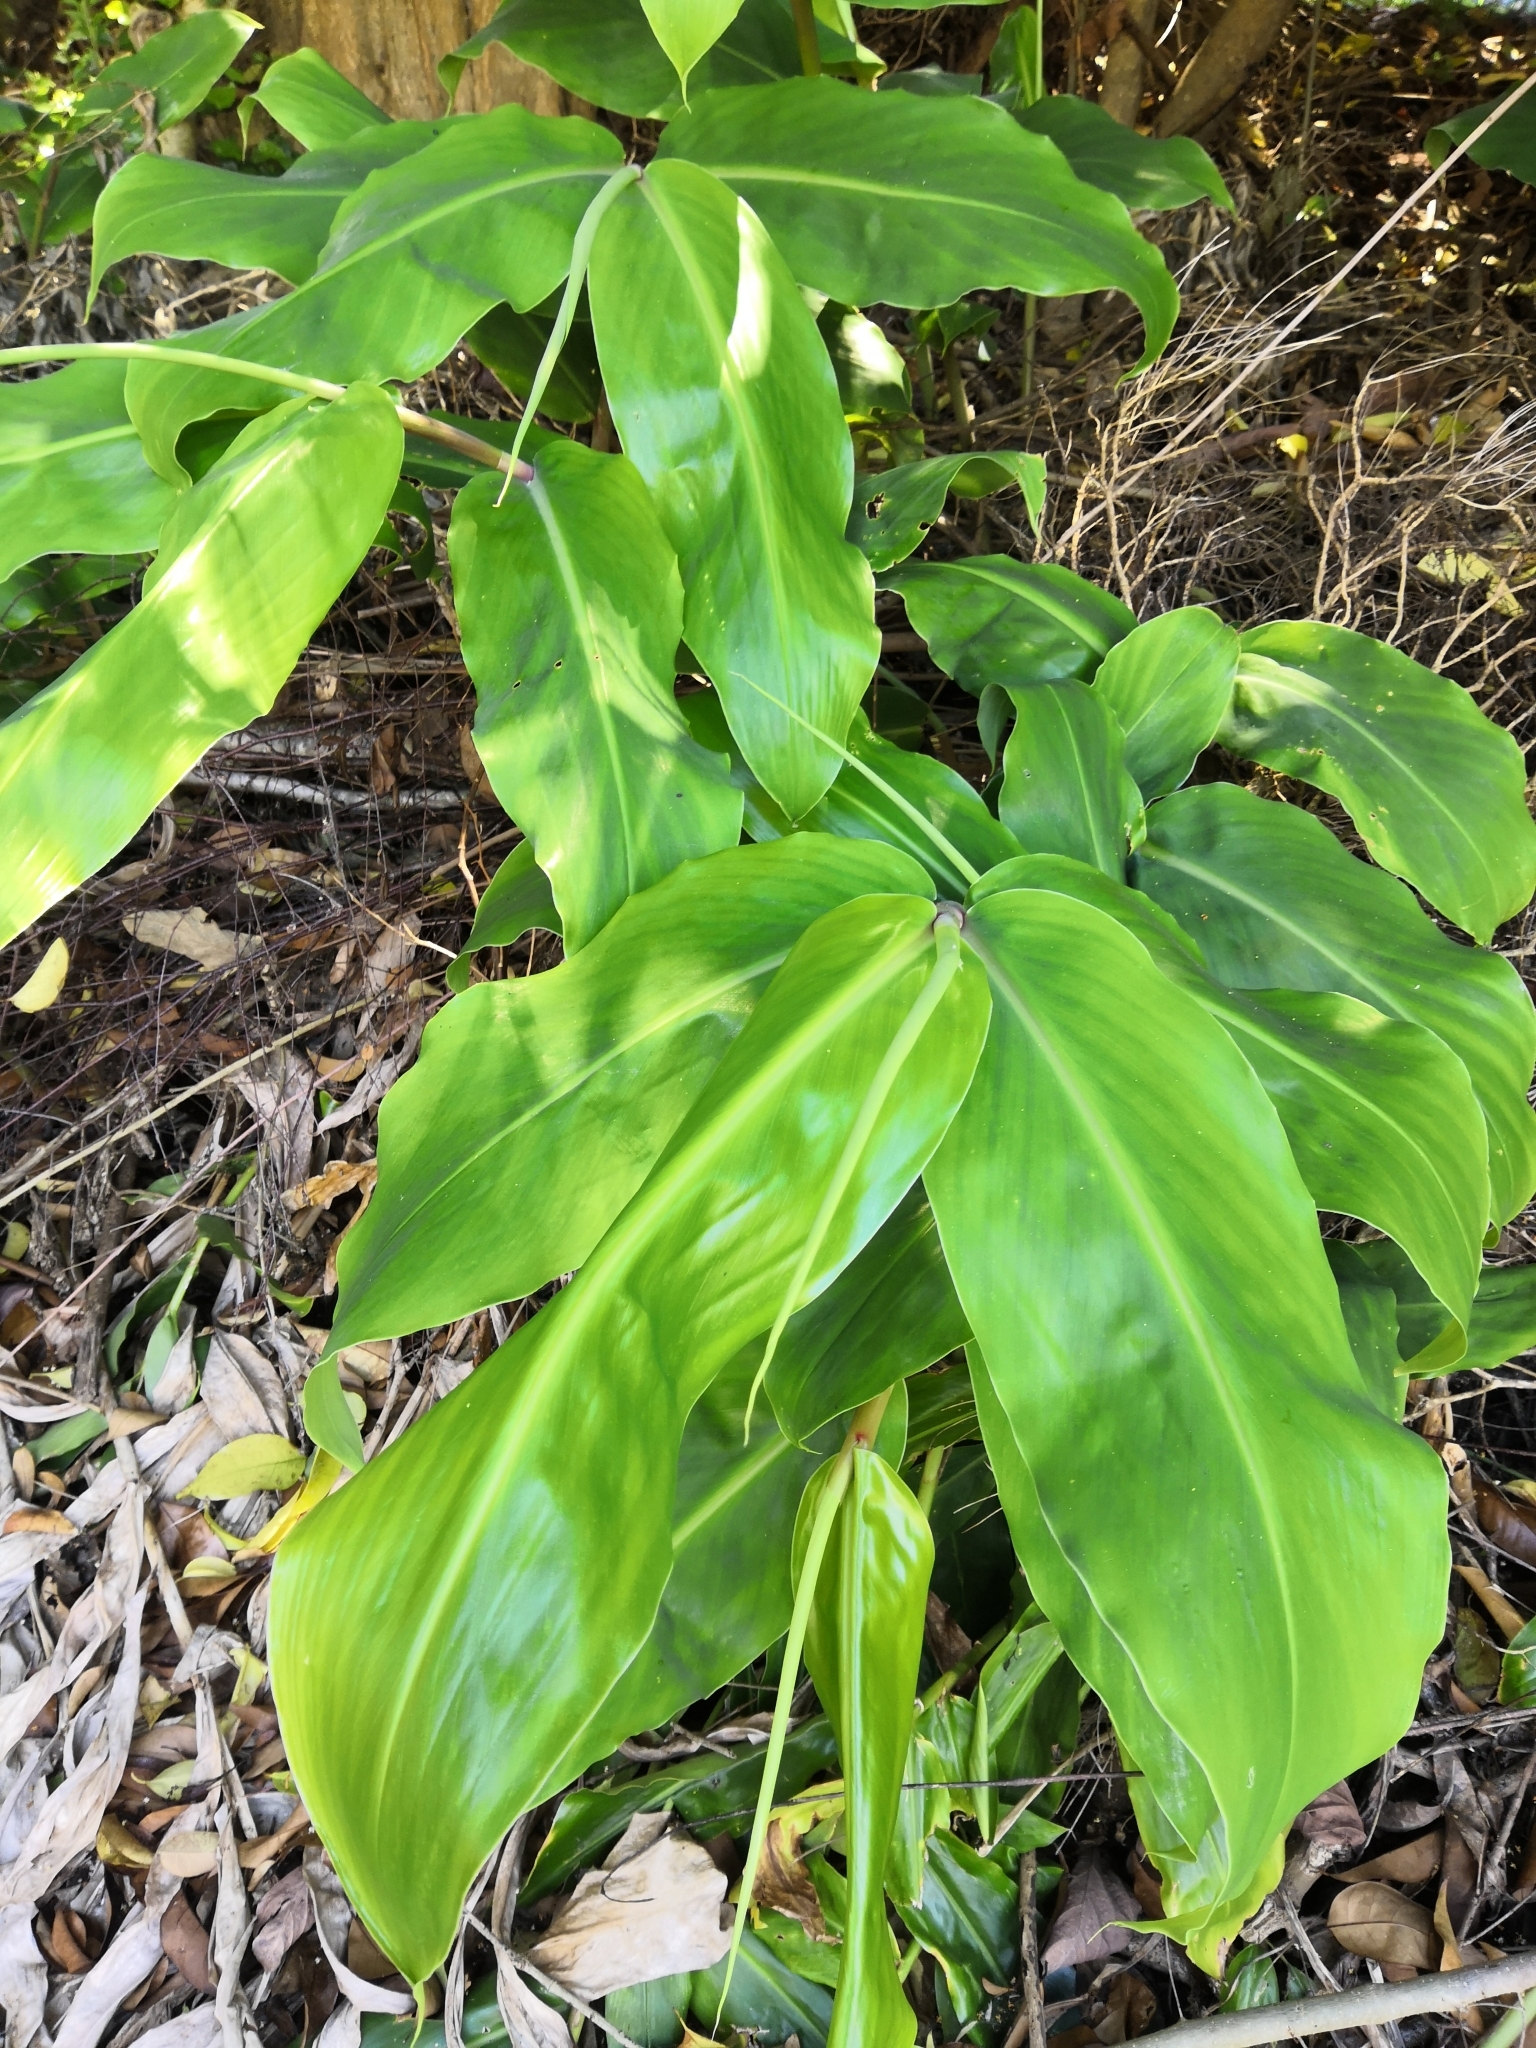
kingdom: Plantae
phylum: Tracheophyta
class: Liliopsida
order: Zingiberales
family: Zingiberaceae
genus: Hedychium
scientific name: Hedychium gardnerianum
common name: Himalayan ginger
